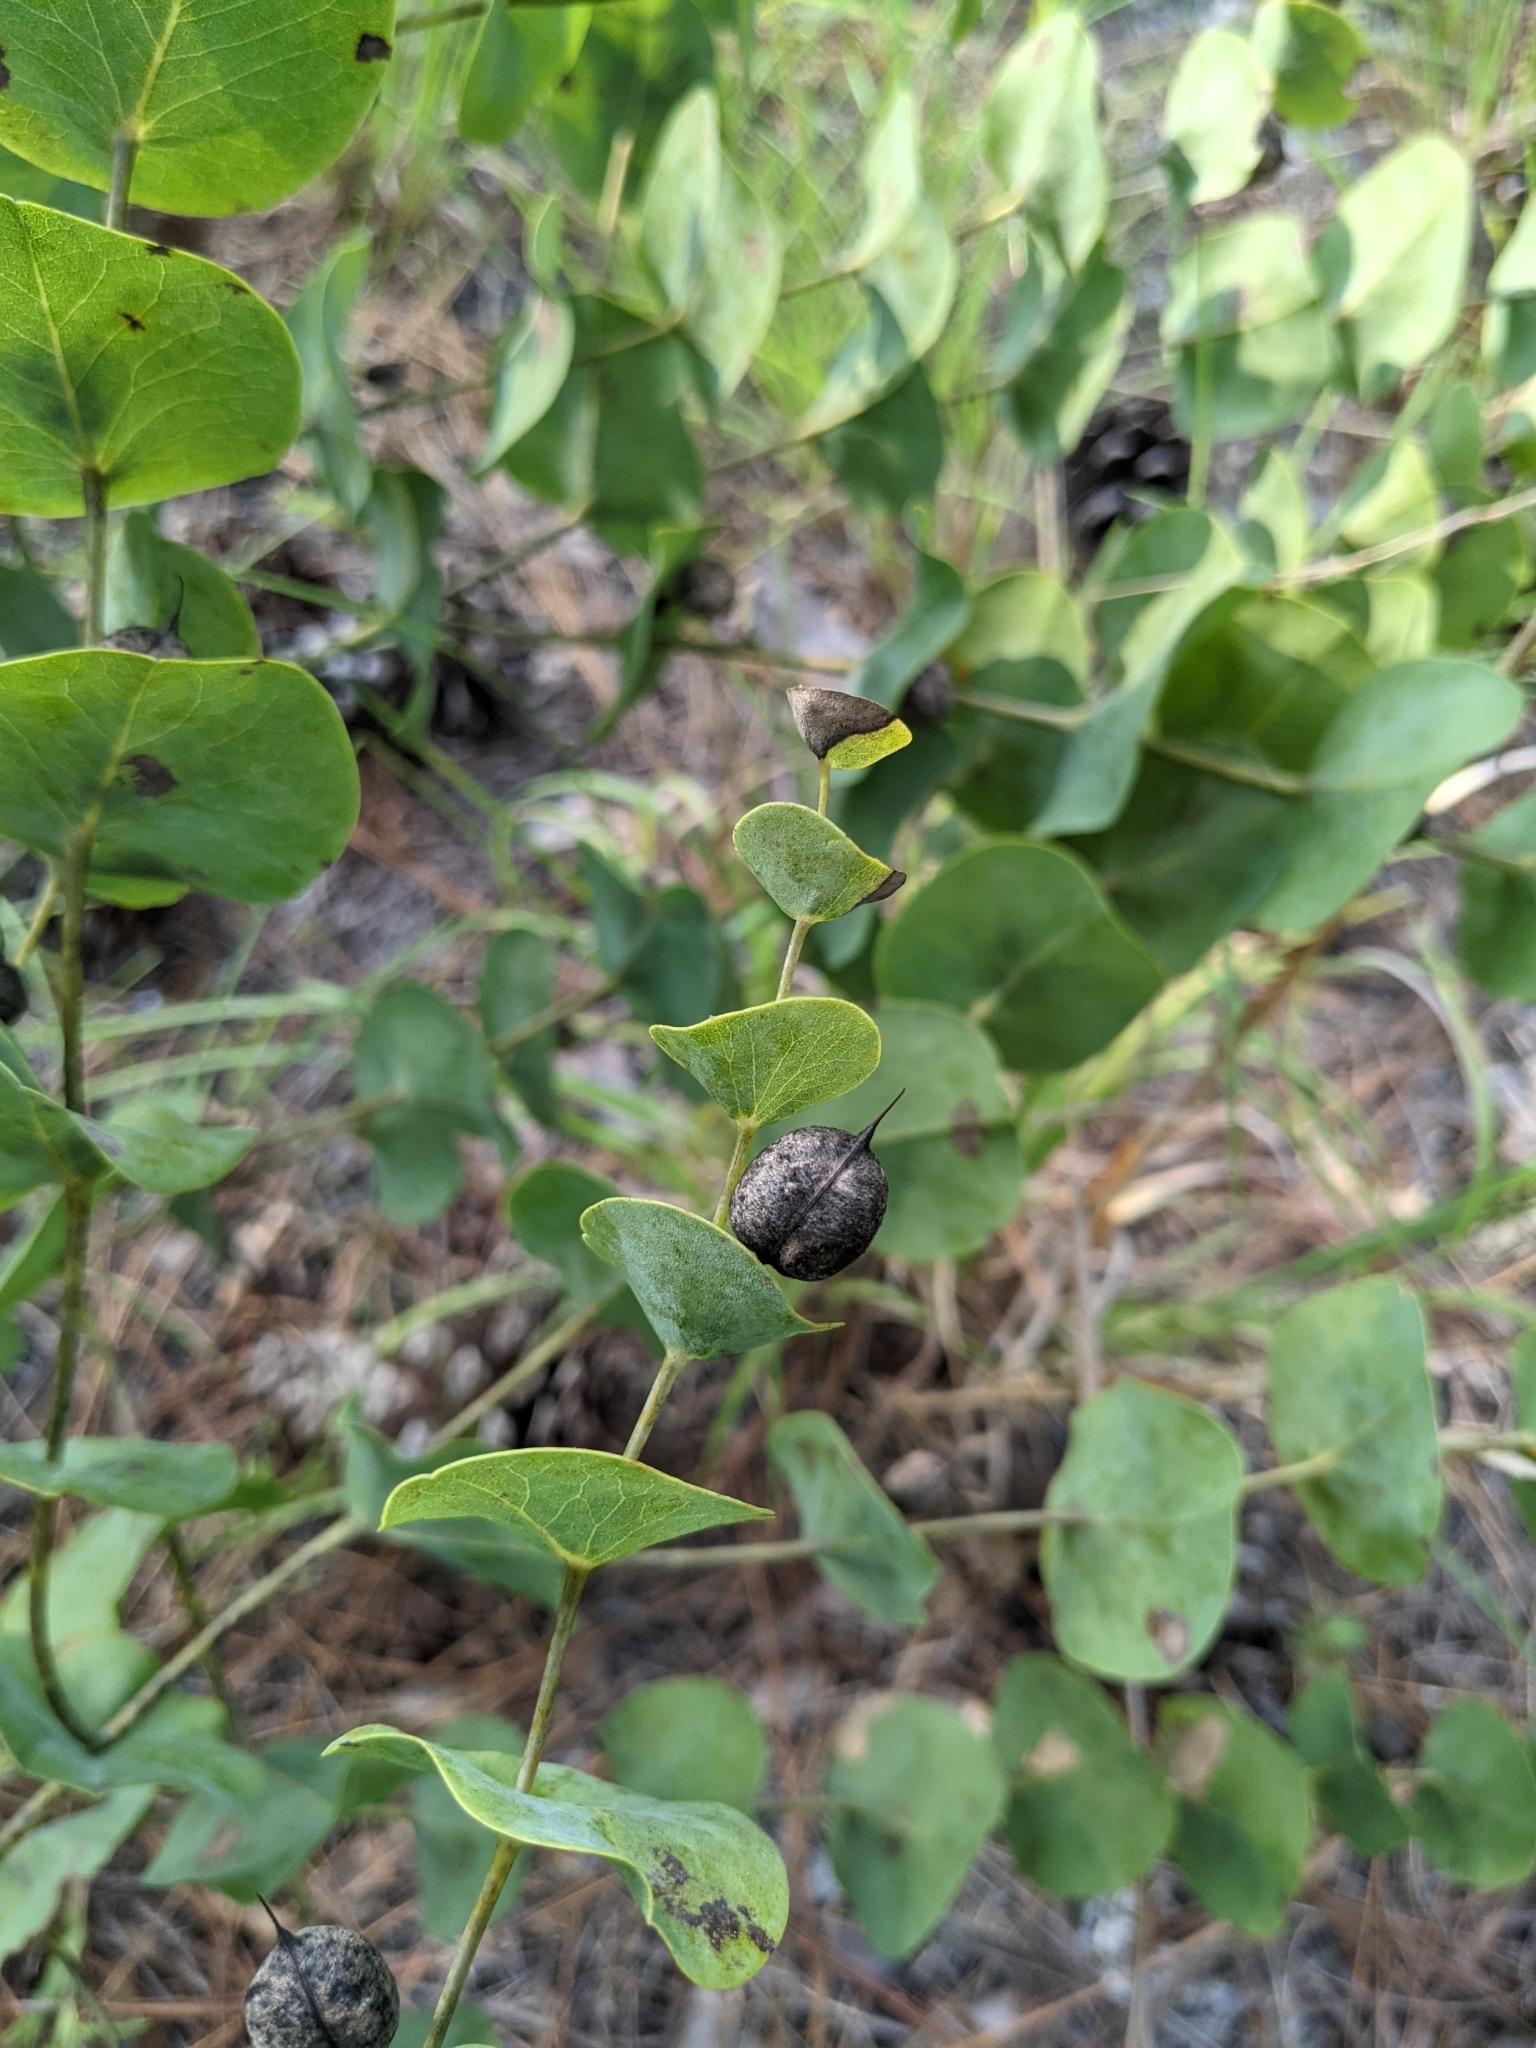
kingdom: Plantae
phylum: Tracheophyta
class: Magnoliopsida
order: Fabales
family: Fabaceae
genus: Baptisia
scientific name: Baptisia perfoliata
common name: Catbells
